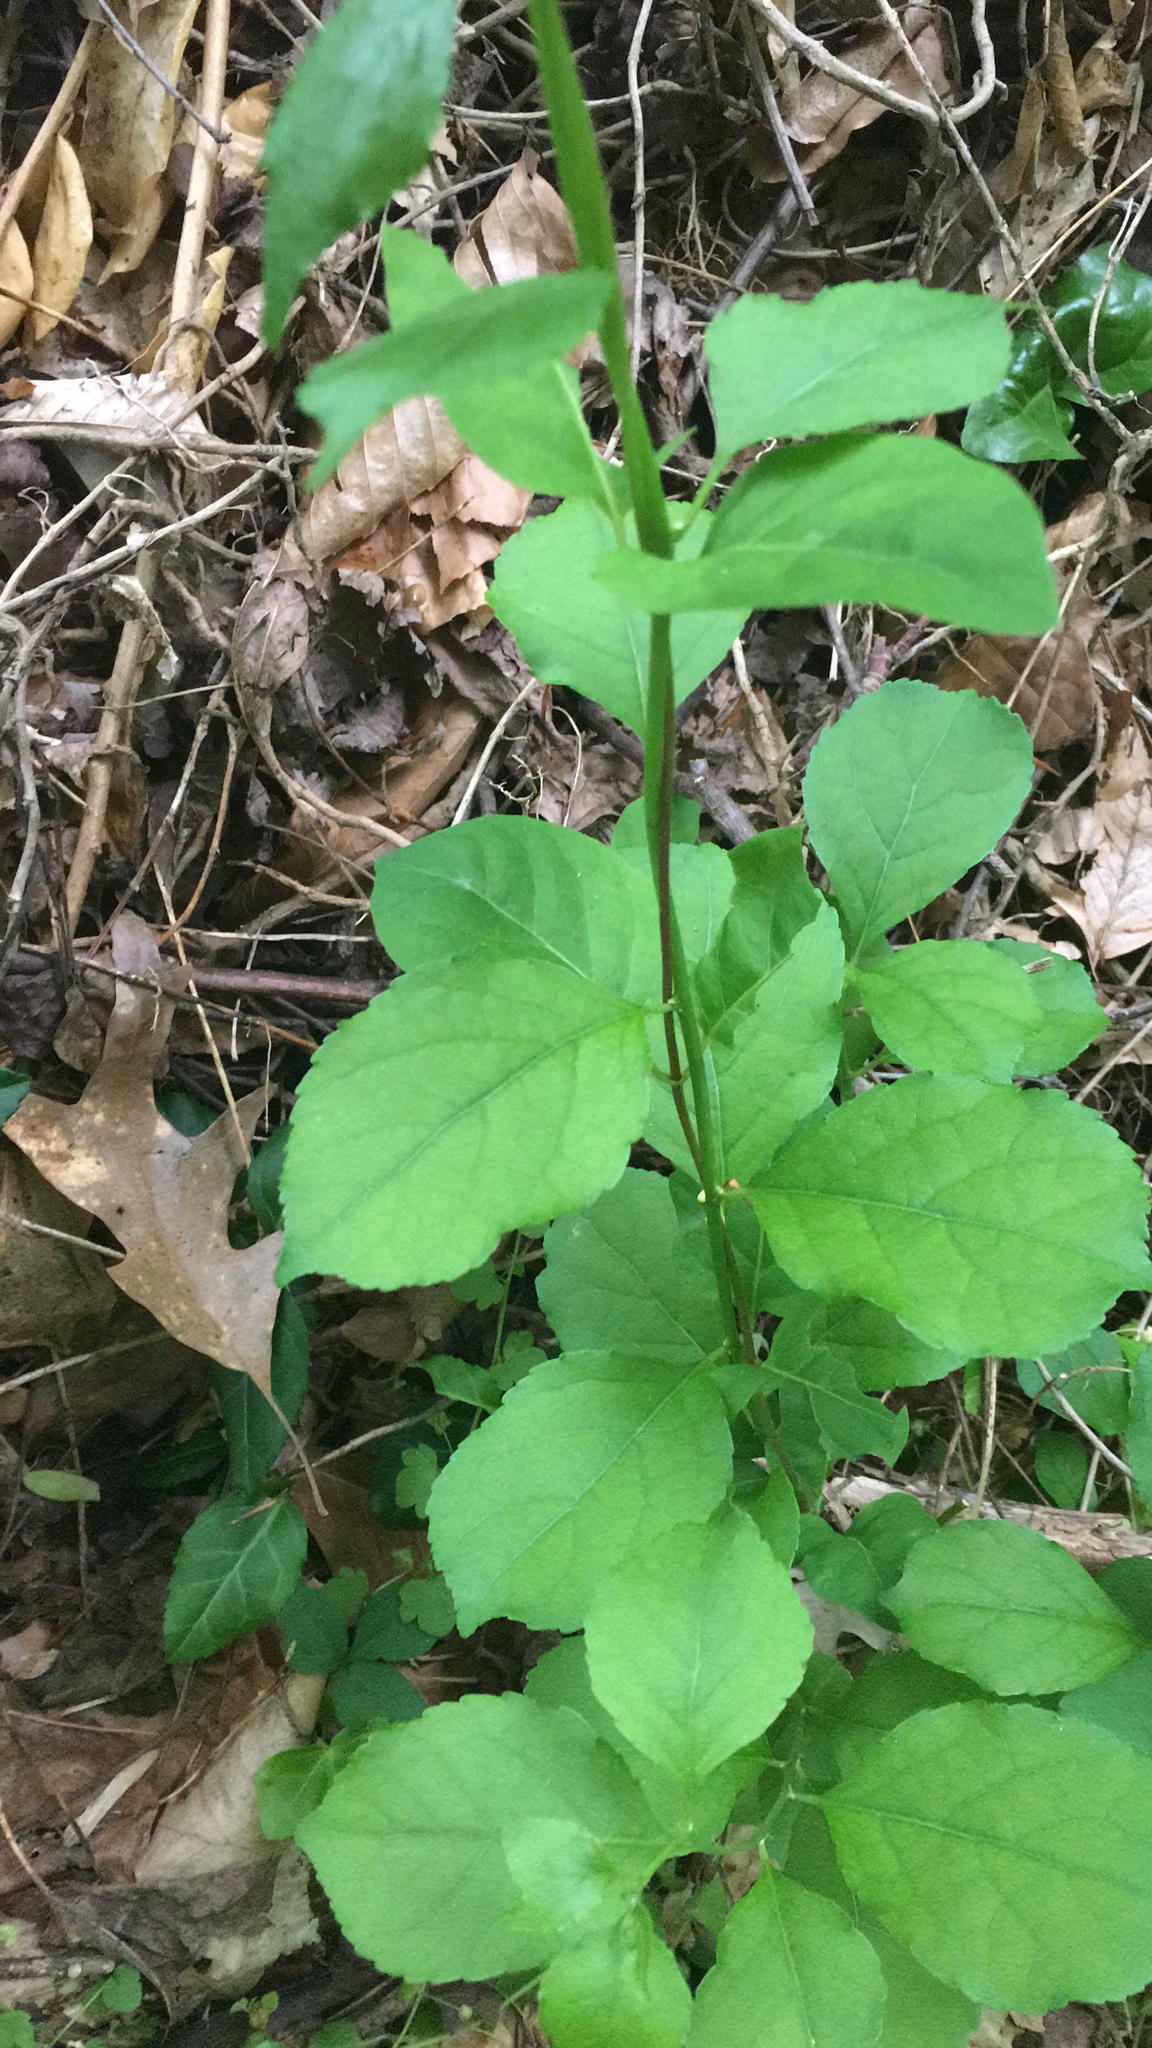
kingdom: Plantae
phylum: Tracheophyta
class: Magnoliopsida
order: Celastrales
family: Celastraceae
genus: Celastrus
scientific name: Celastrus orbiculatus
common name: Oriental bittersweet
